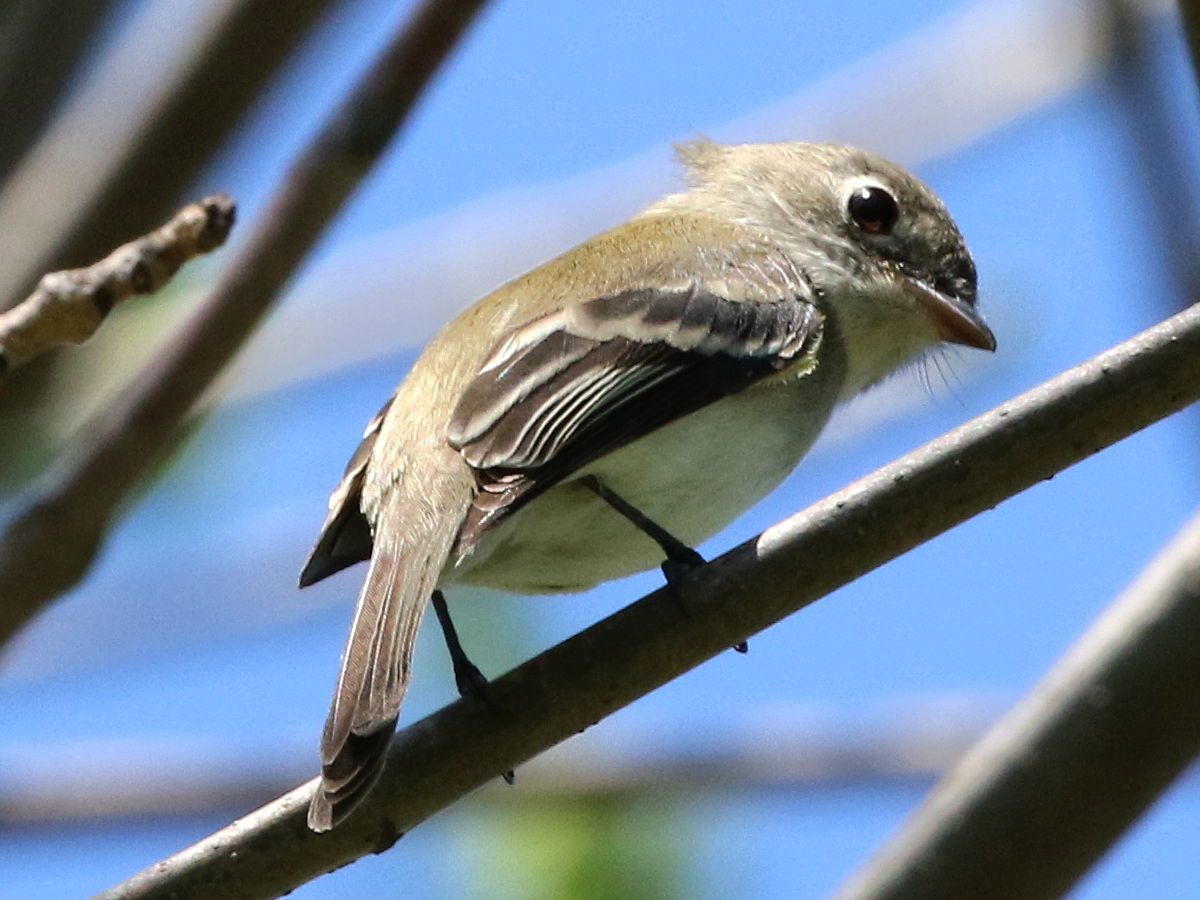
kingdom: Animalia
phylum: Chordata
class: Aves
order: Passeriformes
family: Tyrannidae
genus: Empidonax
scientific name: Empidonax minimus
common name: Least flycatcher
